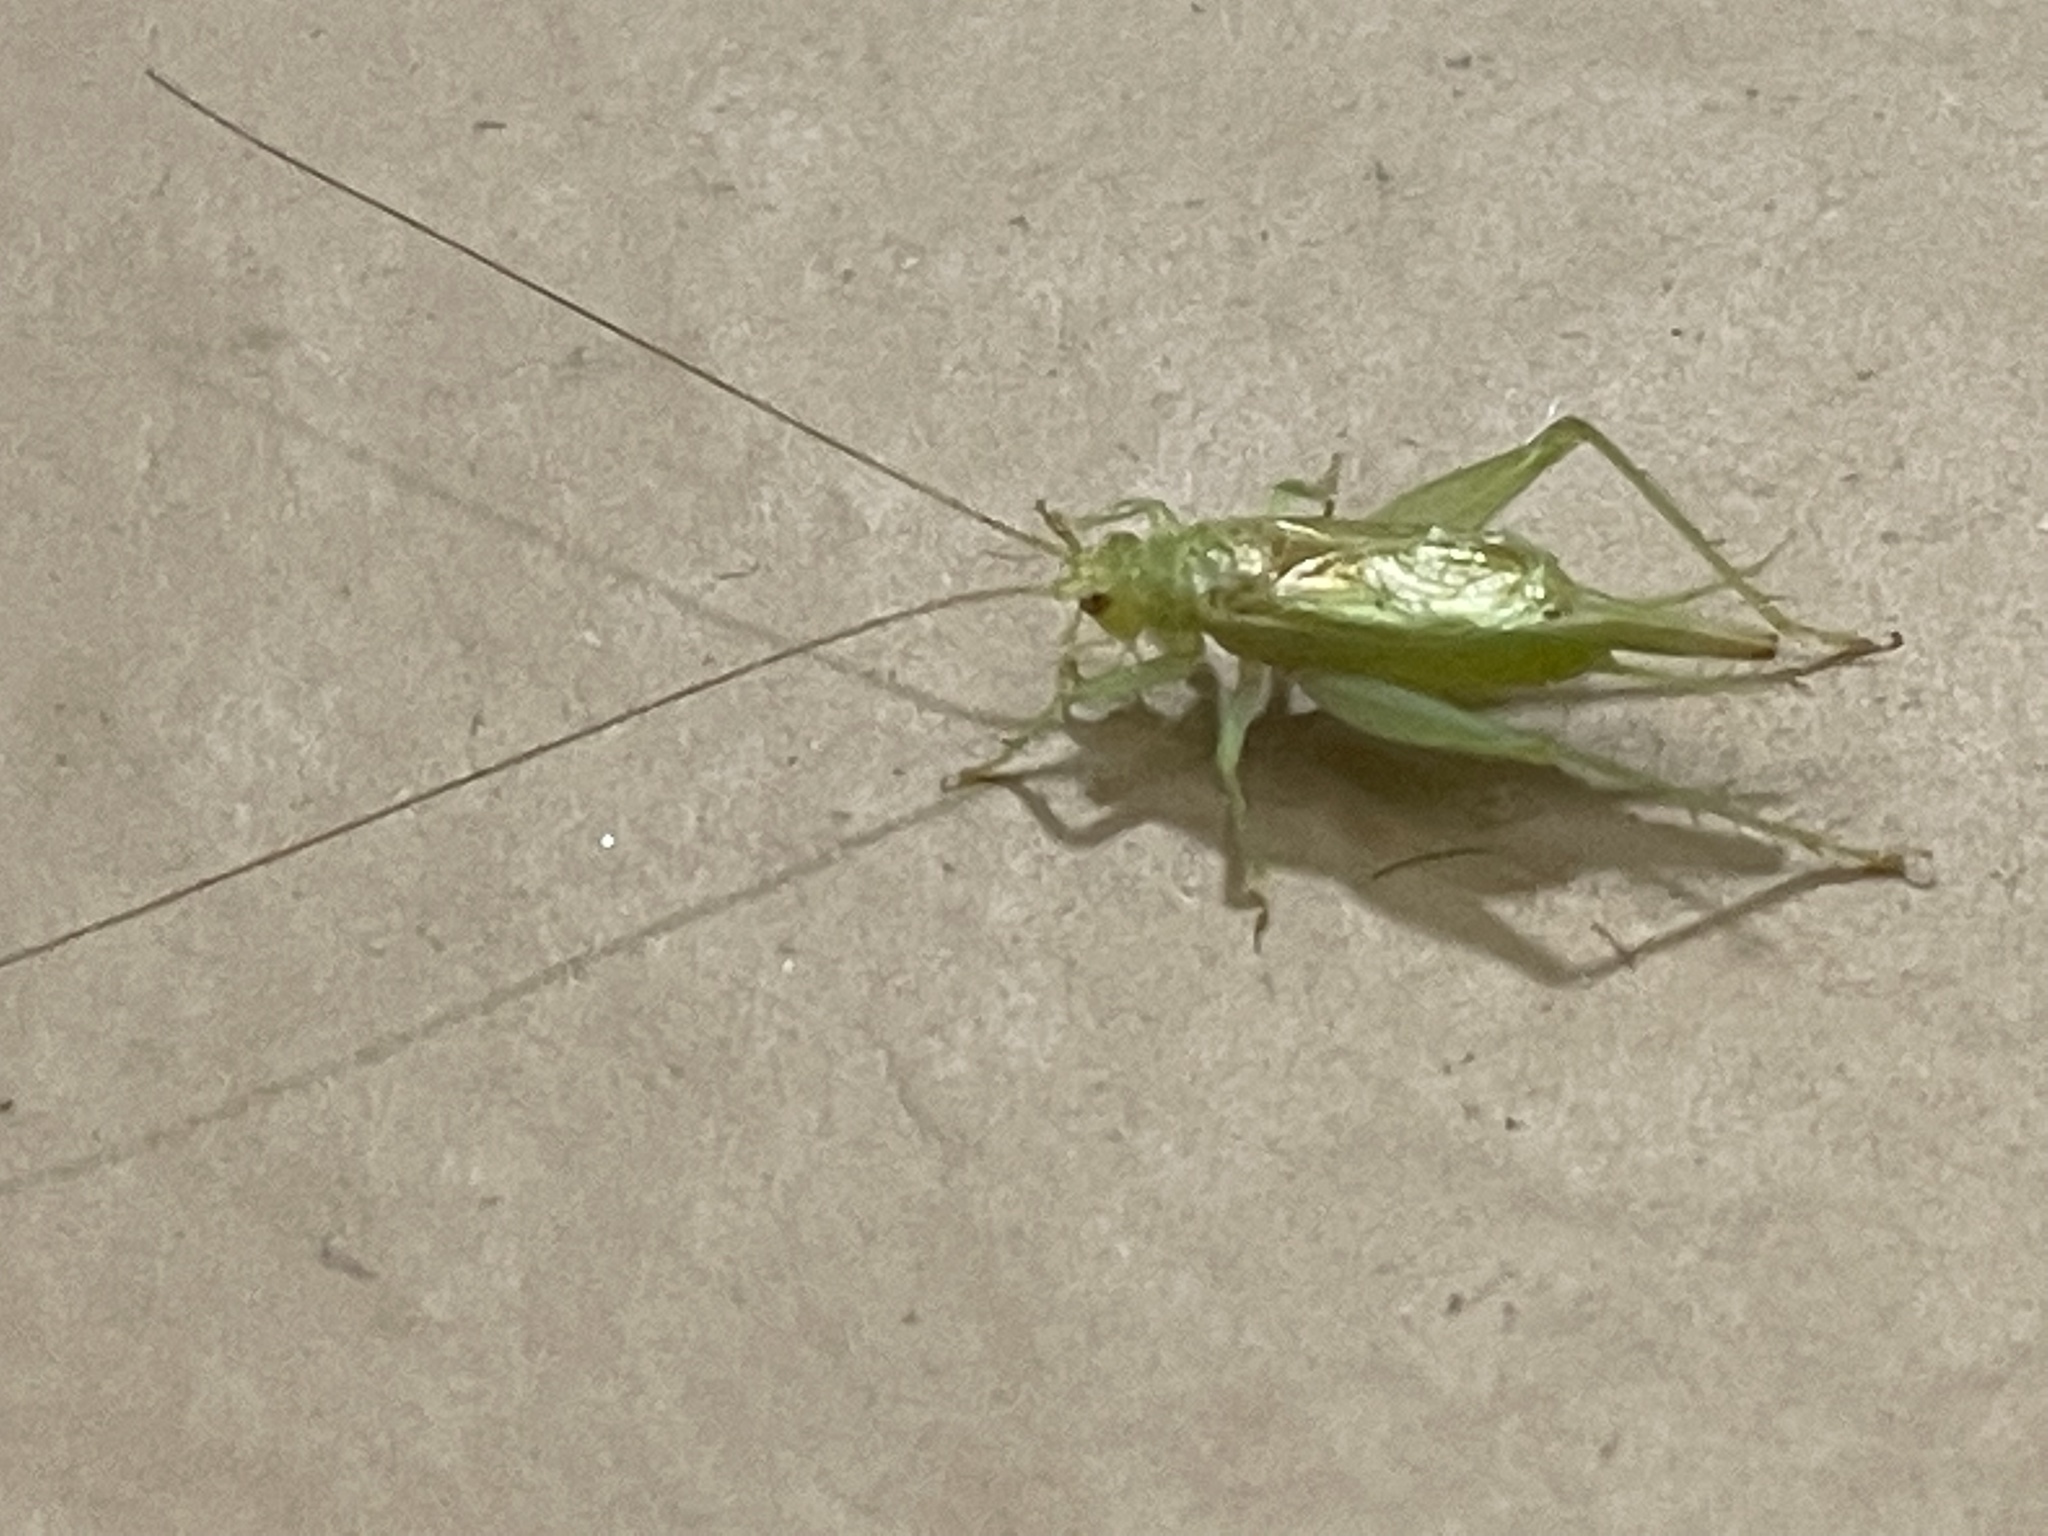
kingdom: Animalia
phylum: Arthropoda
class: Insecta
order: Orthoptera
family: Trigonidiidae
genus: Cyrtoxipha
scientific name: Cyrtoxipha columbiana
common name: Columbian trig
